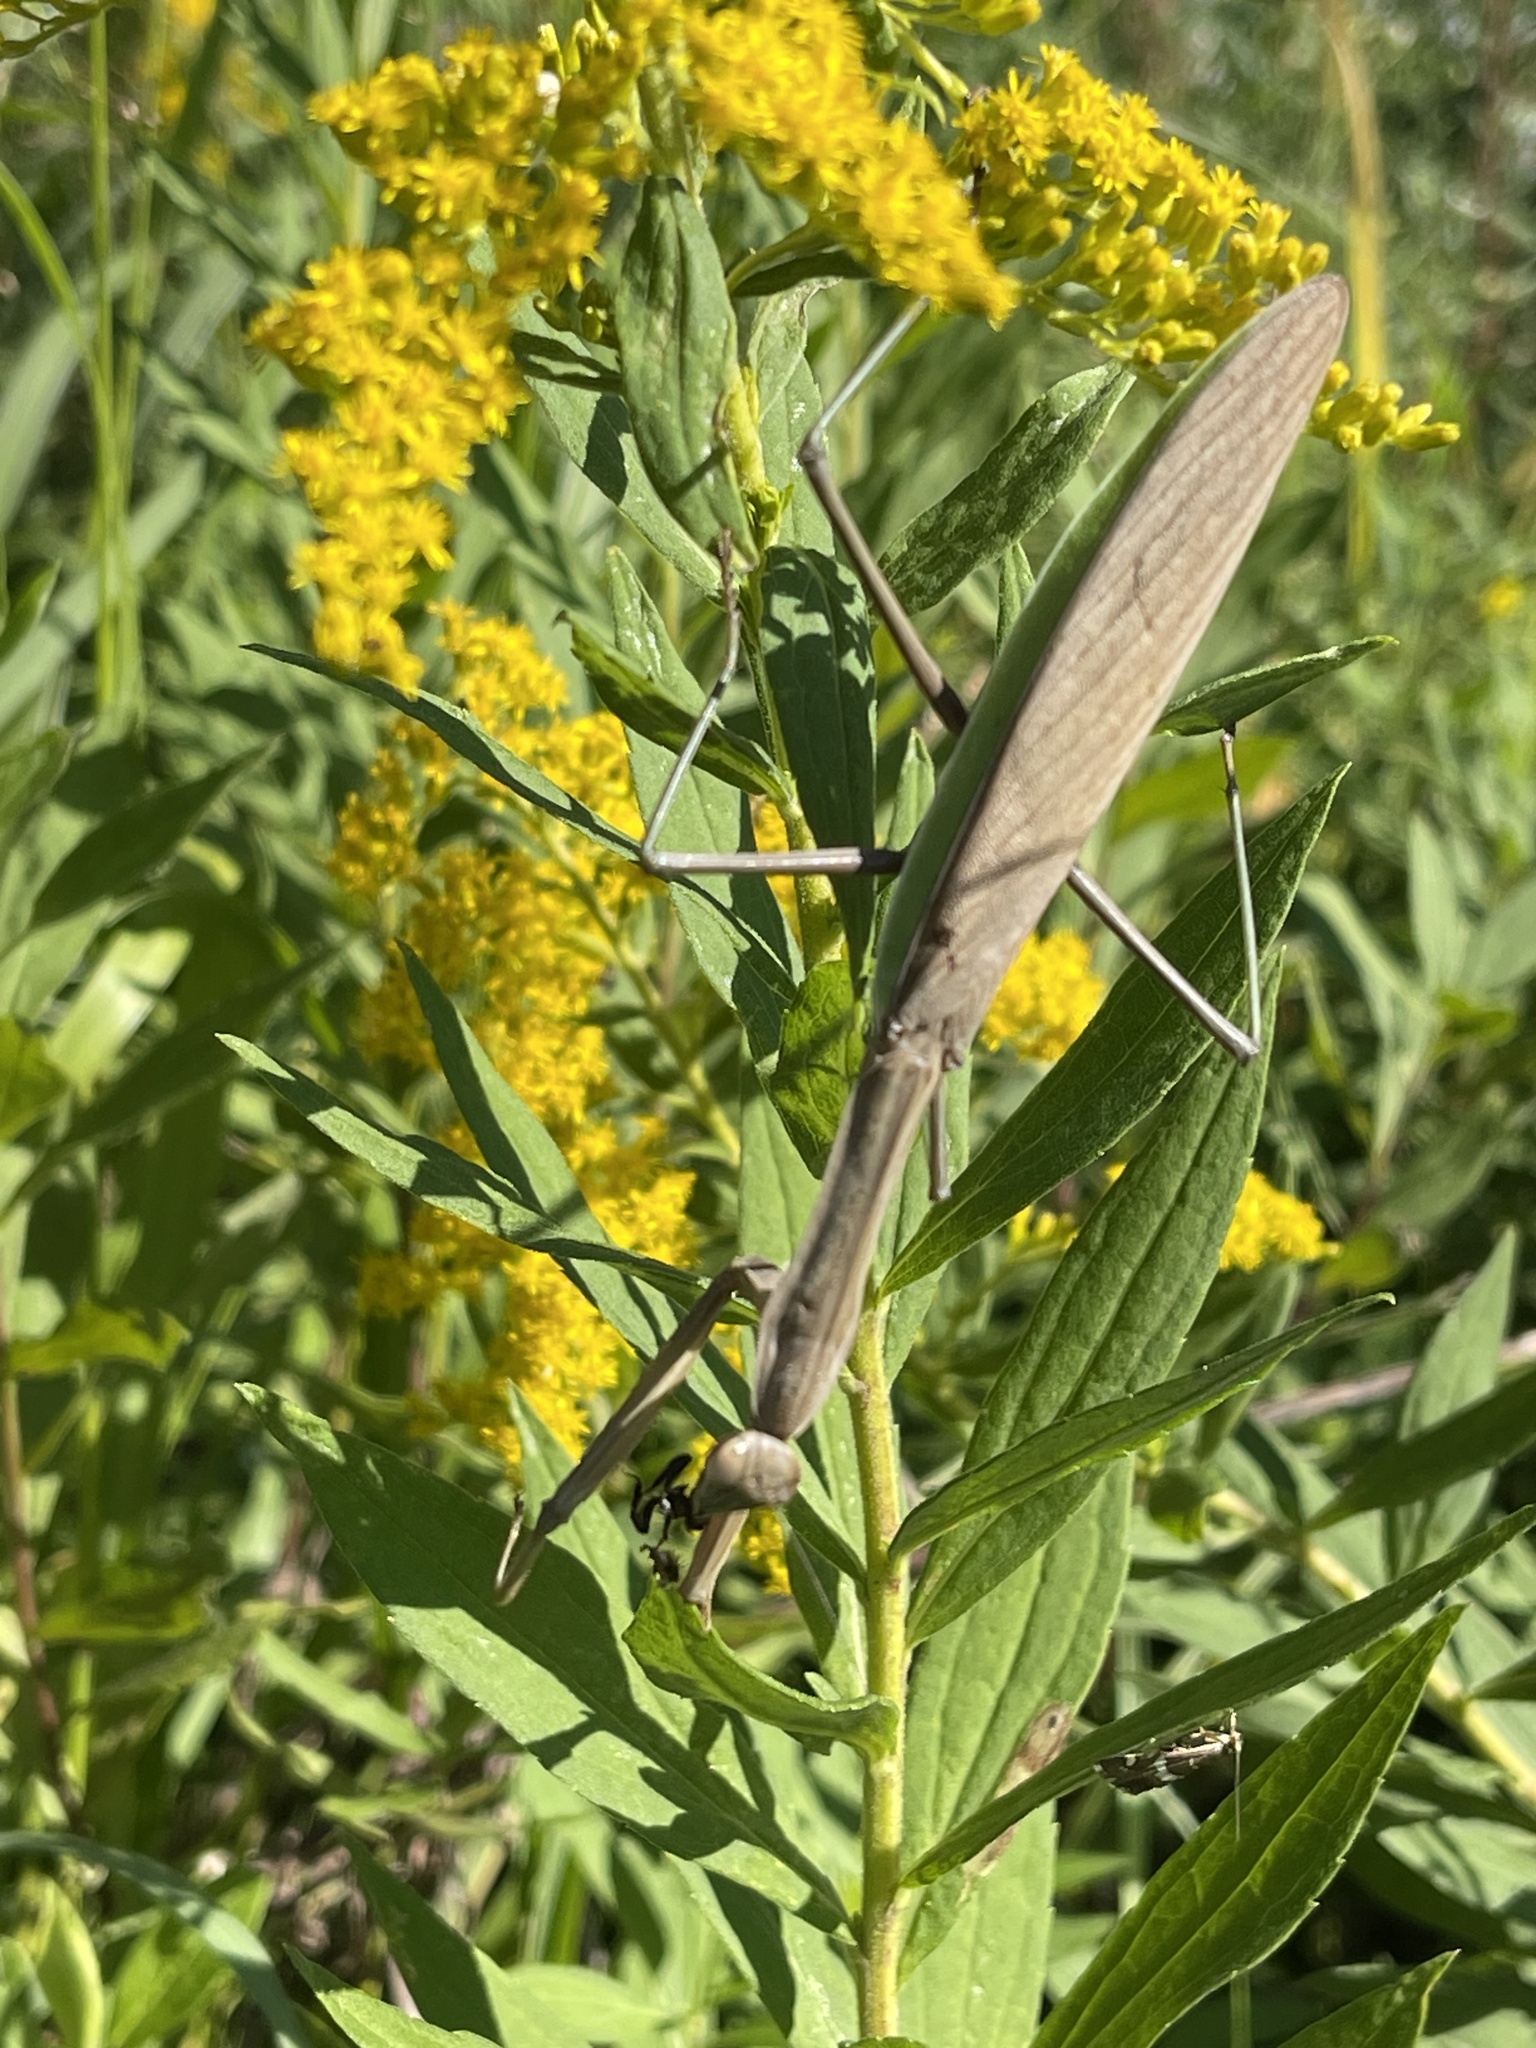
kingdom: Animalia
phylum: Arthropoda
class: Insecta
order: Mantodea
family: Mantidae
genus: Tenodera
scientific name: Tenodera sinensis
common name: Chinese mantis
